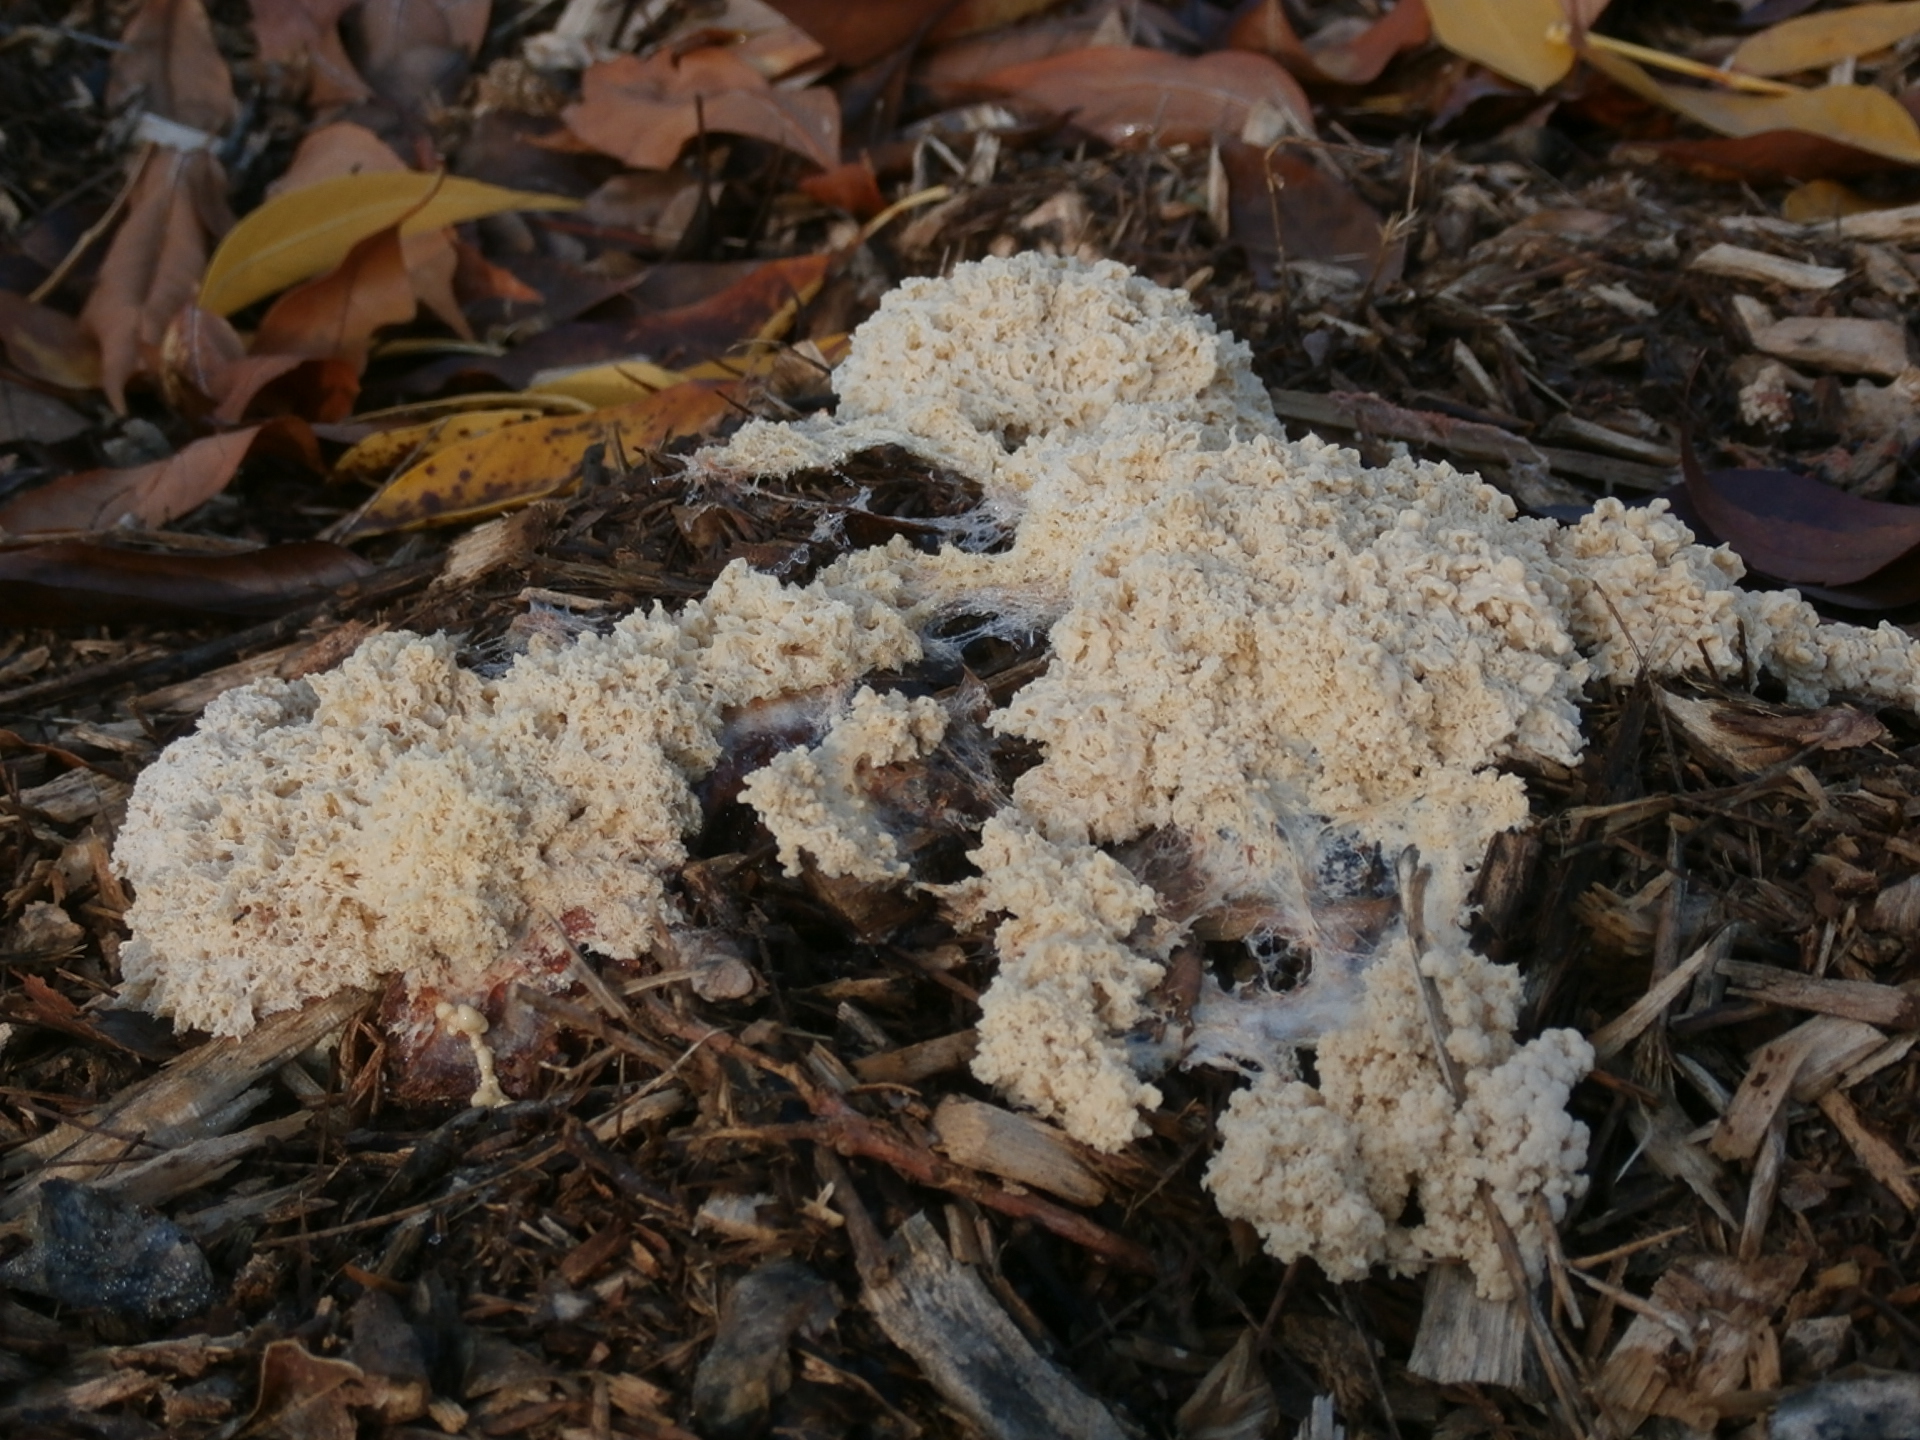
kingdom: Protozoa
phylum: Mycetozoa
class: Myxomycetes
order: Physarales
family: Physaraceae
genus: Fuligo
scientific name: Fuligo septica
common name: Dog vomit slime mold
